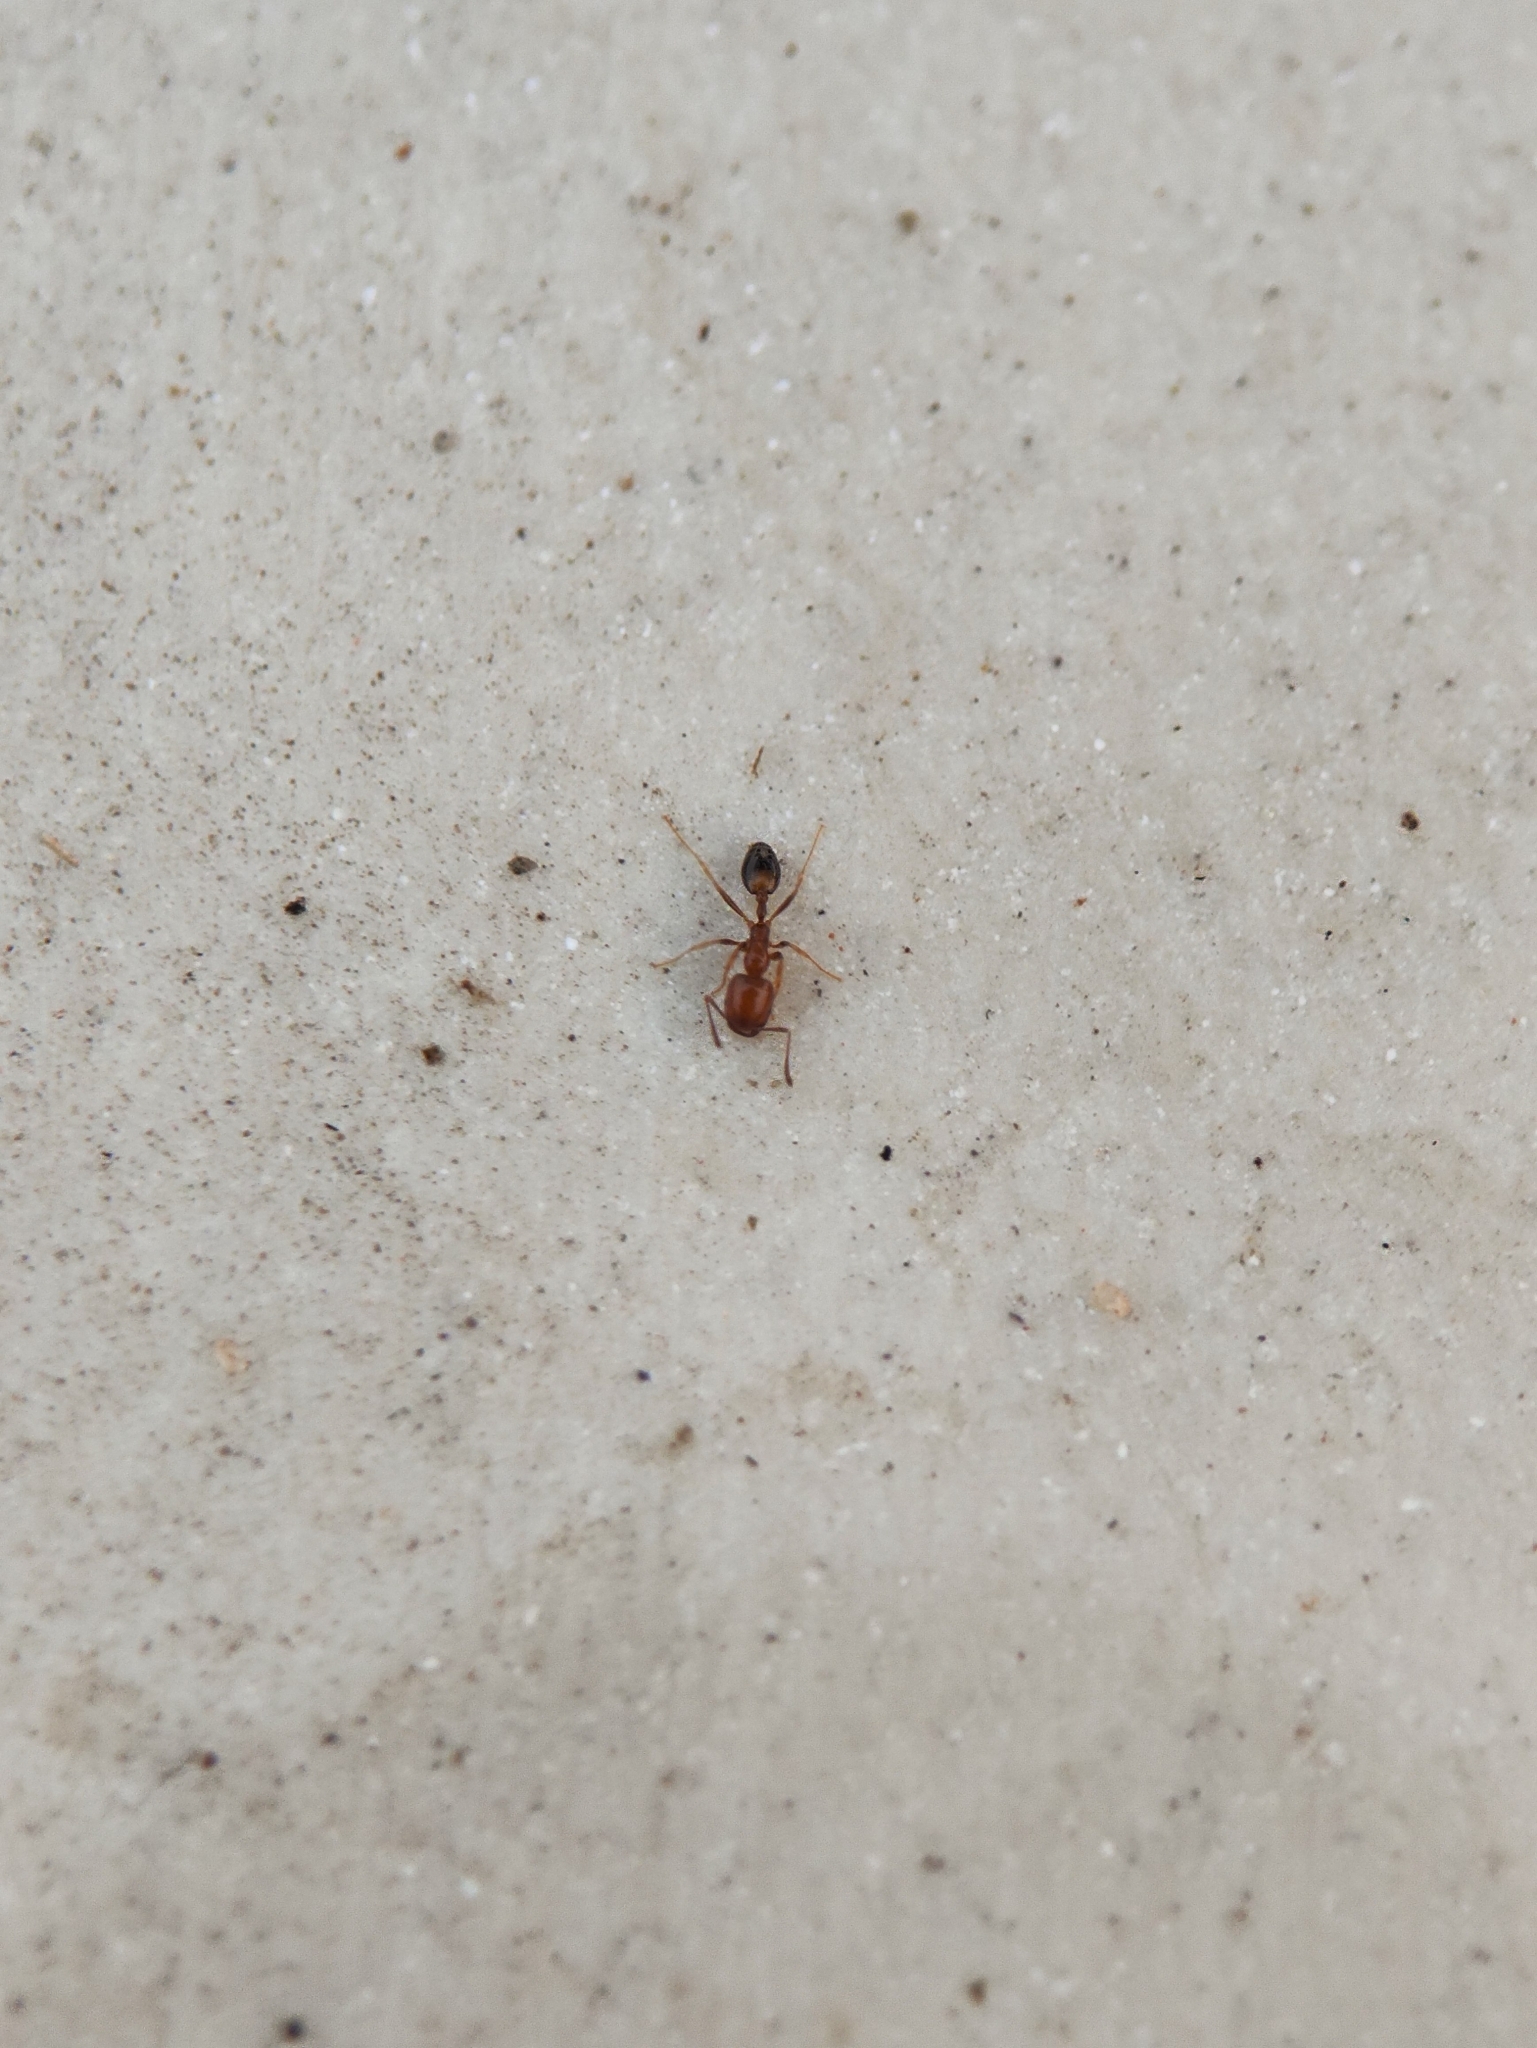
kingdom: Animalia
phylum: Arthropoda
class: Insecta
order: Hymenoptera
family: Formicidae
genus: Monomorium
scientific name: Monomorium destructor
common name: Destructive trailing ant
